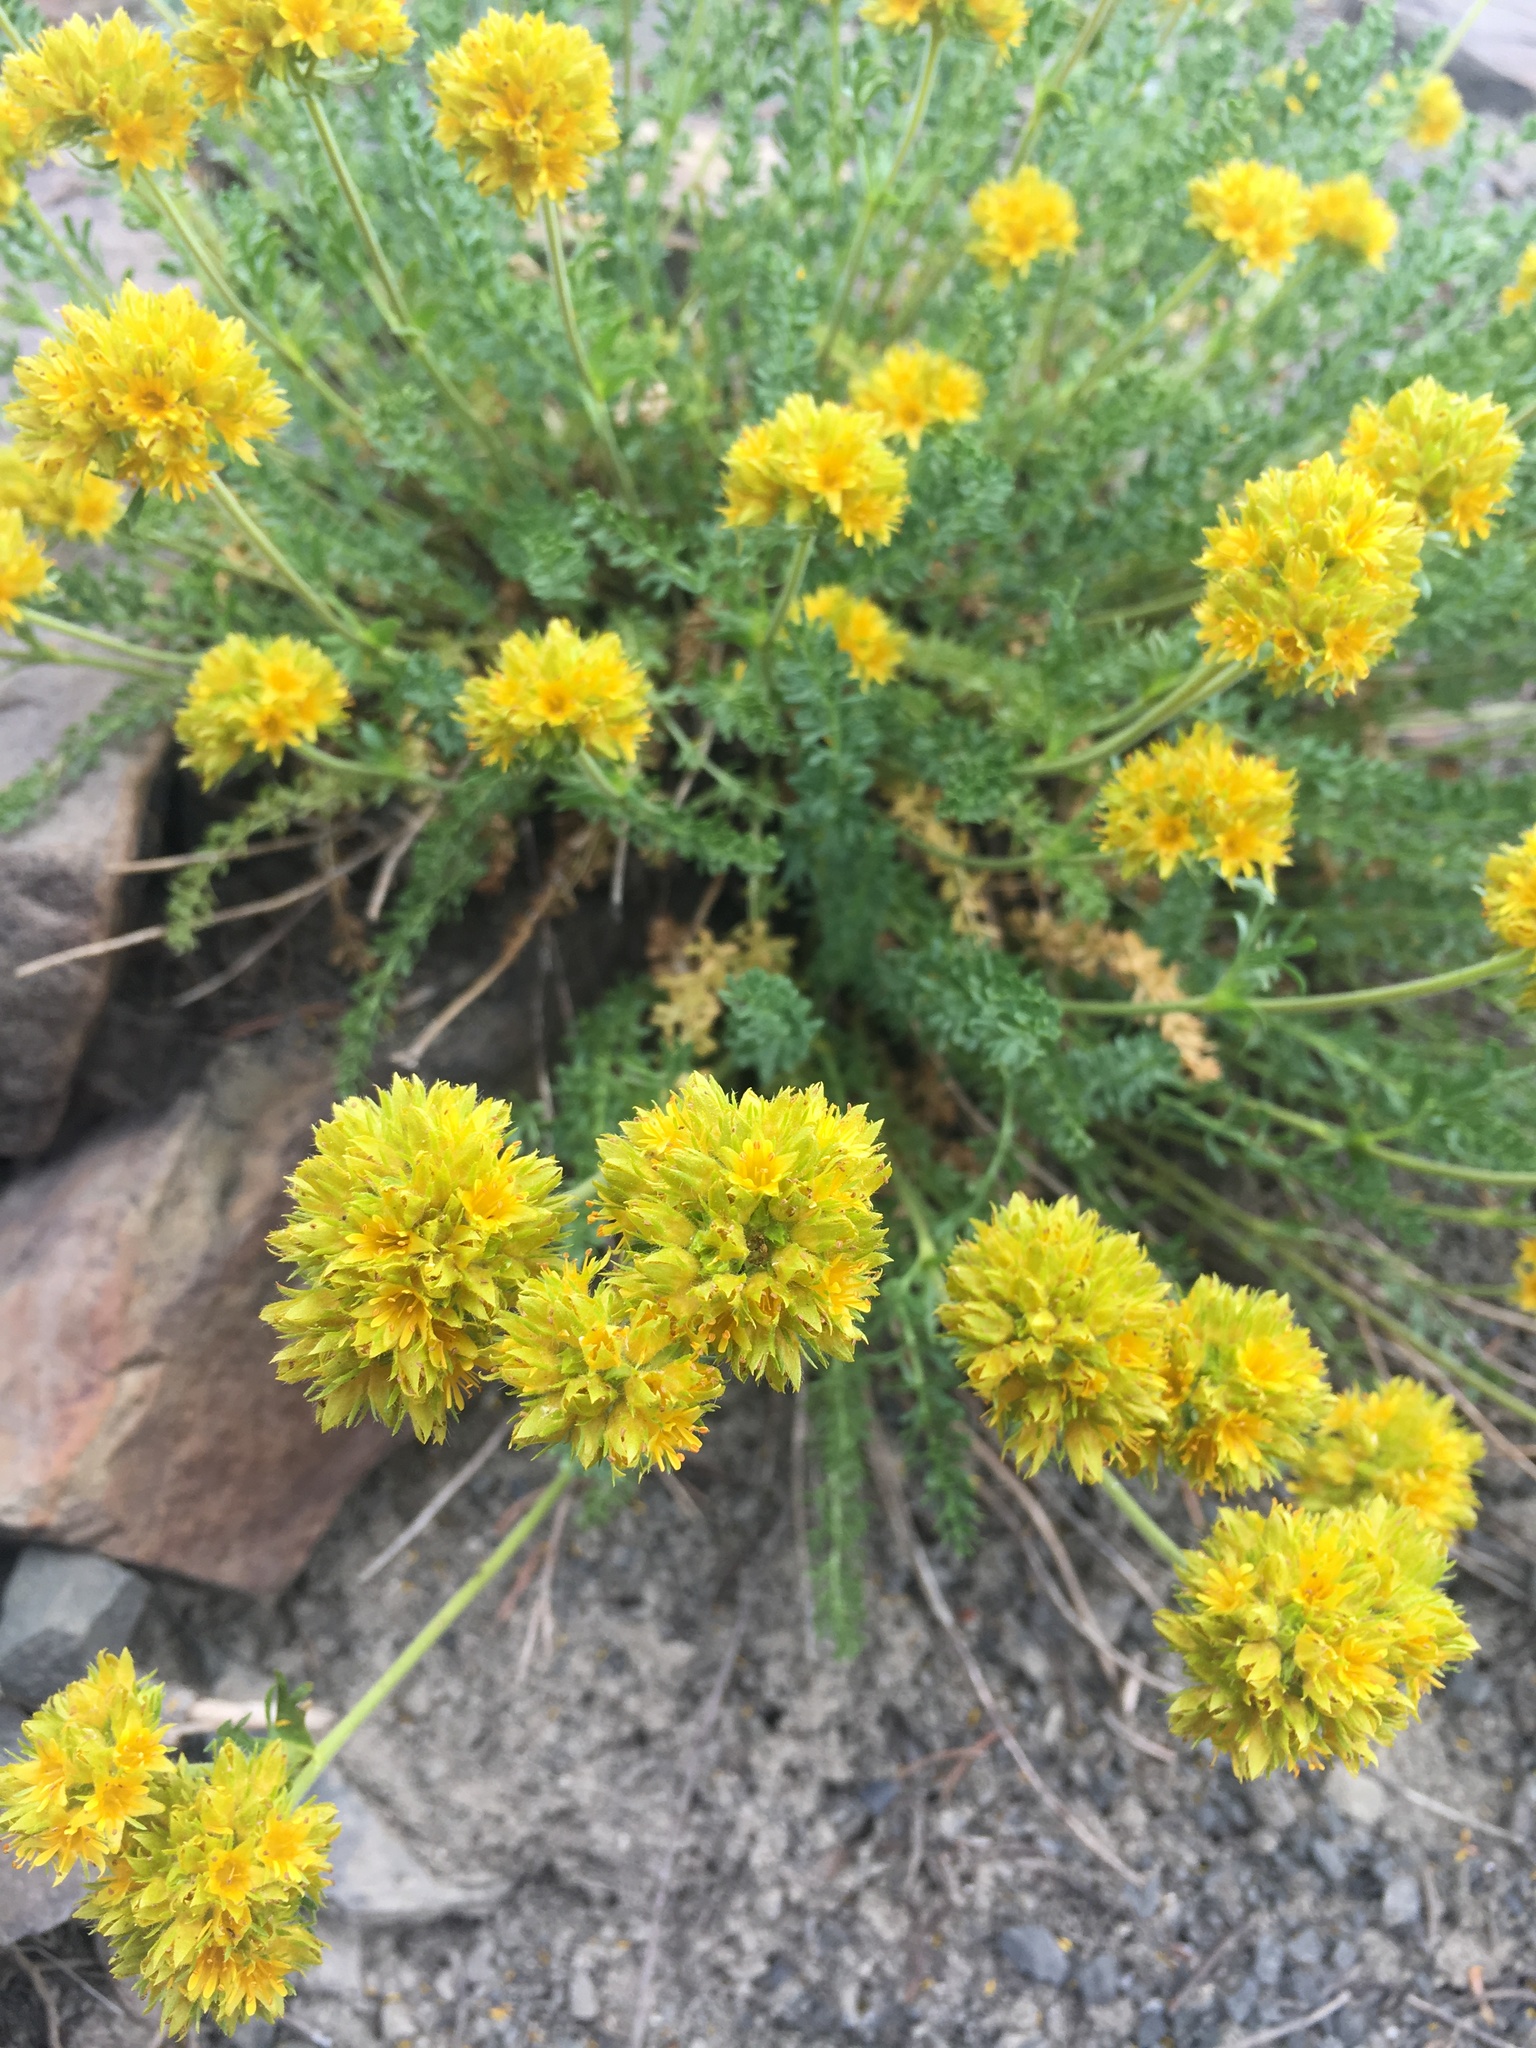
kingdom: Plantae
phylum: Tracheophyta
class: Magnoliopsida
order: Rosales
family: Rosaceae
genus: Potentilla
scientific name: Potentilla gordonii
